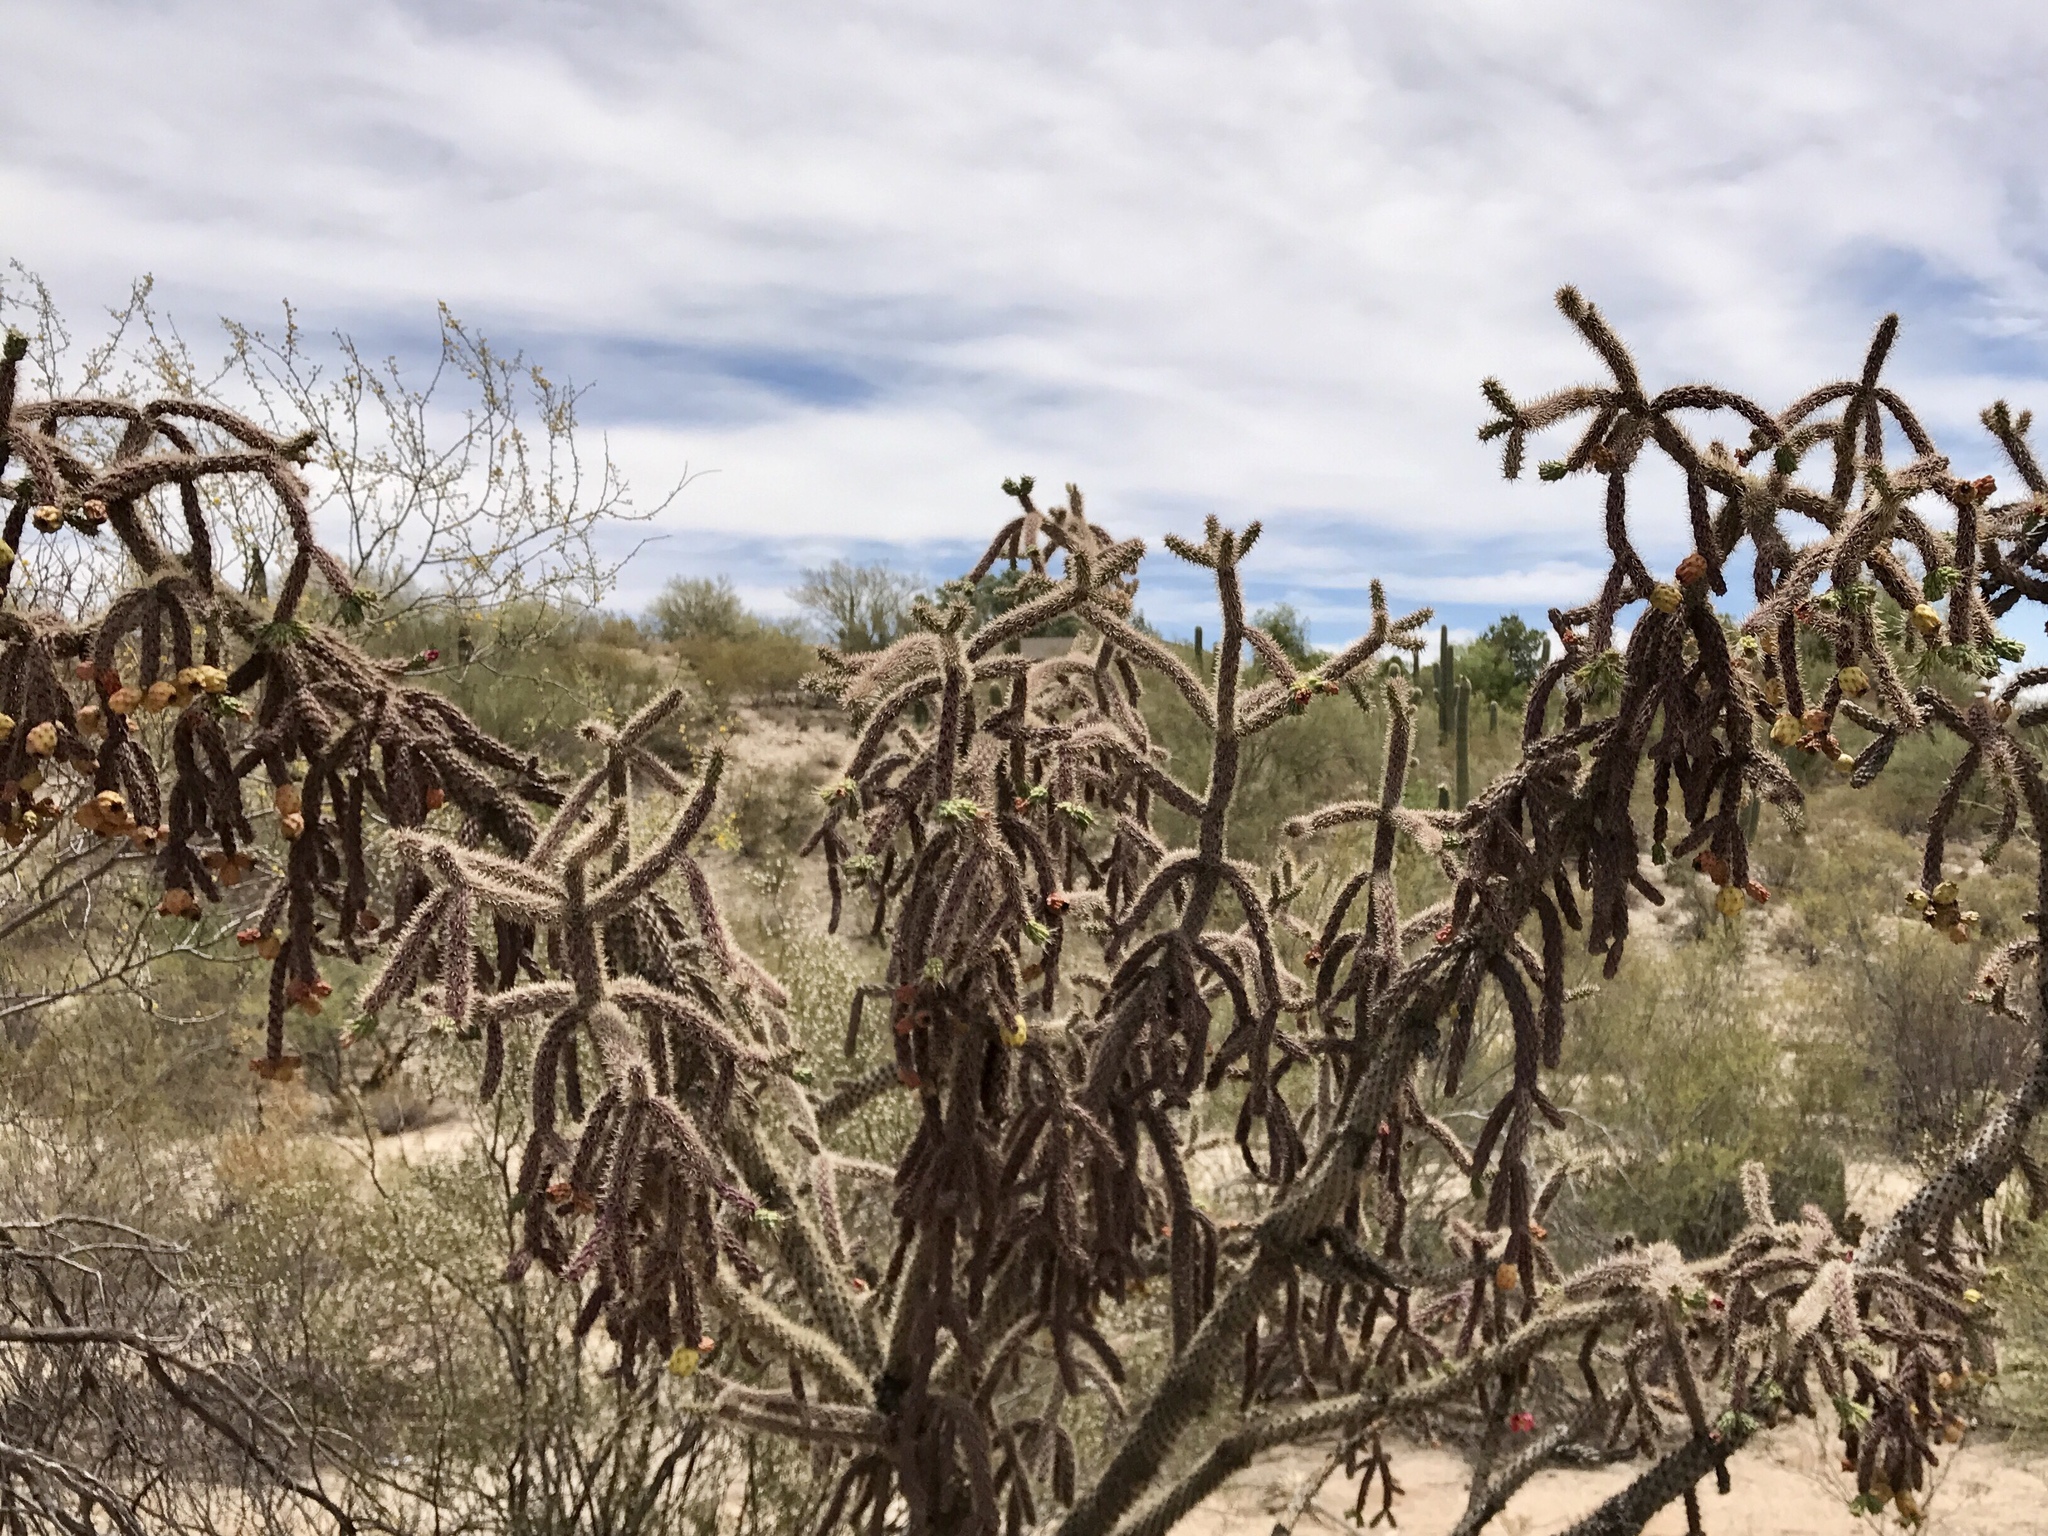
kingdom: Plantae
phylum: Tracheophyta
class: Magnoliopsida
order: Caryophyllales
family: Cactaceae
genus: Cylindropuntia
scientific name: Cylindropuntia imbricata
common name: Candelabrum cactus
